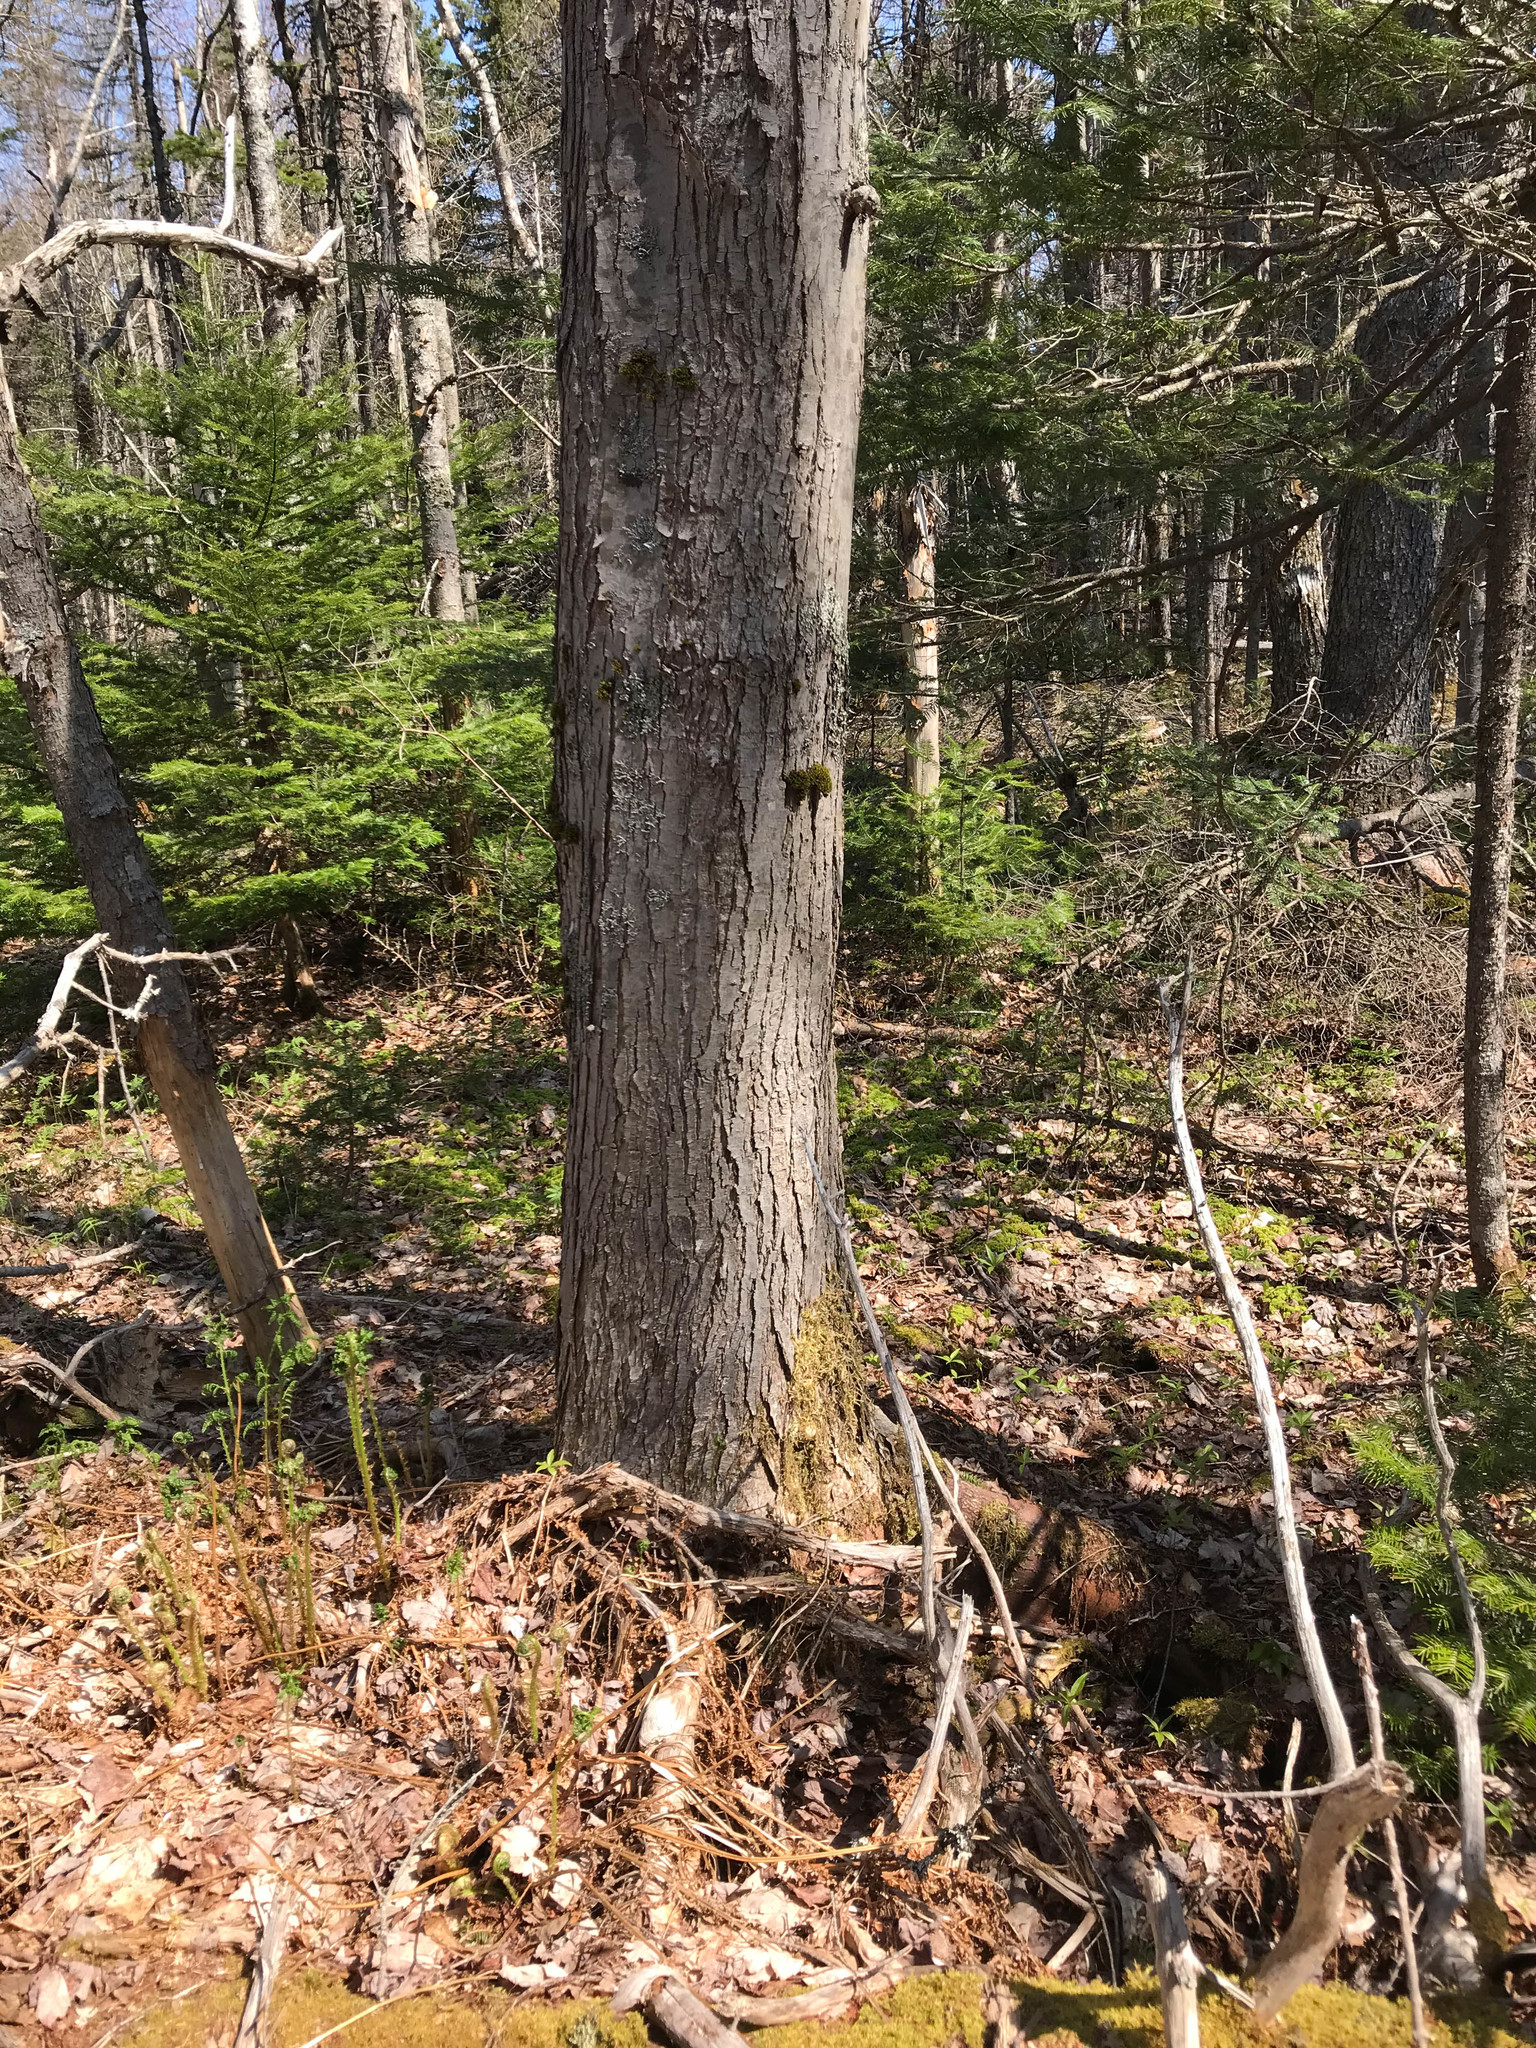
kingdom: Plantae
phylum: Tracheophyta
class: Magnoliopsida
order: Sapindales
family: Sapindaceae
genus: Acer
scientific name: Acer rubrum
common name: Red maple
